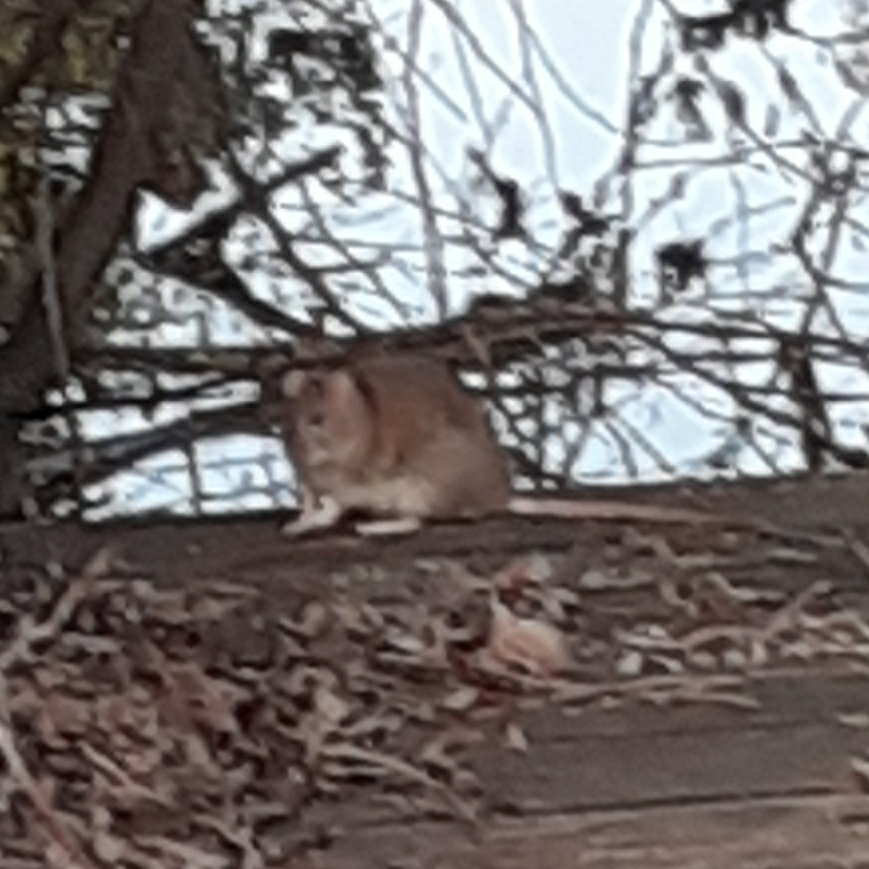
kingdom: Animalia
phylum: Chordata
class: Mammalia
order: Rodentia
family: Muridae
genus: Rattus
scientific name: Rattus norvegicus
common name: Brown rat
